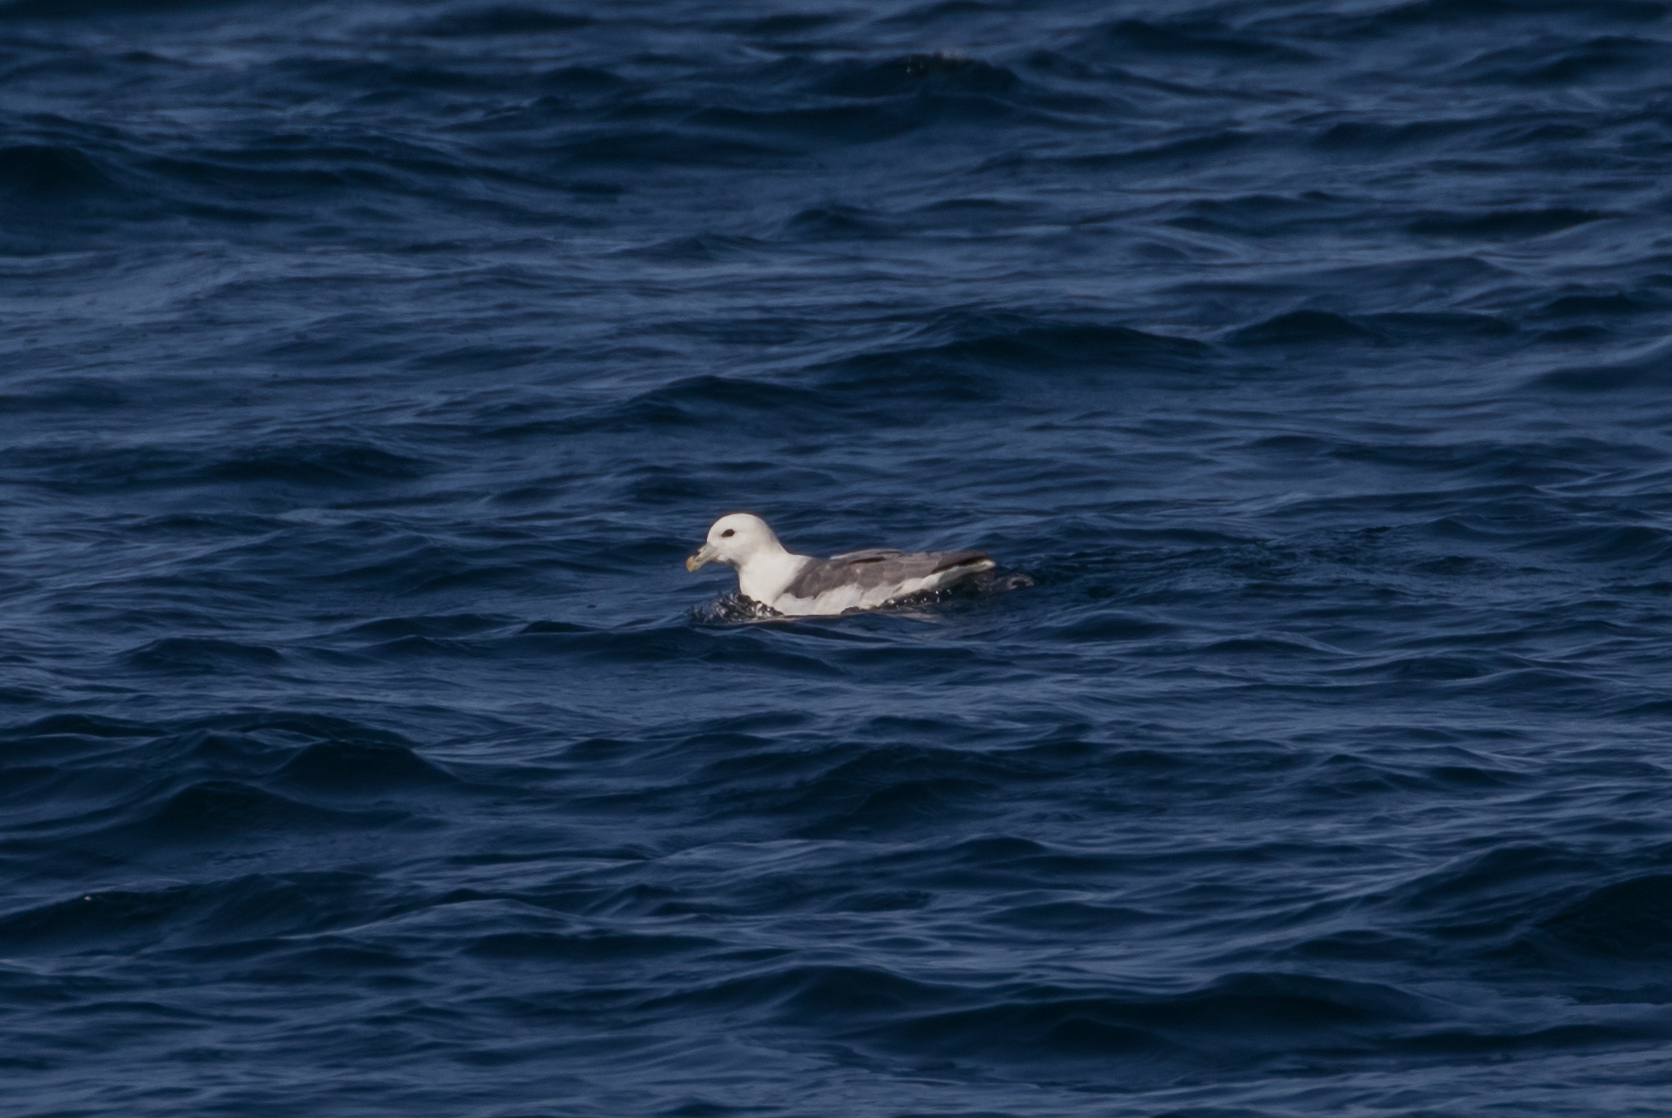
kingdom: Animalia
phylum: Chordata
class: Aves
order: Procellariiformes
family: Procellariidae
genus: Fulmarus
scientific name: Fulmarus glacialis
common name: Northern fulmar
